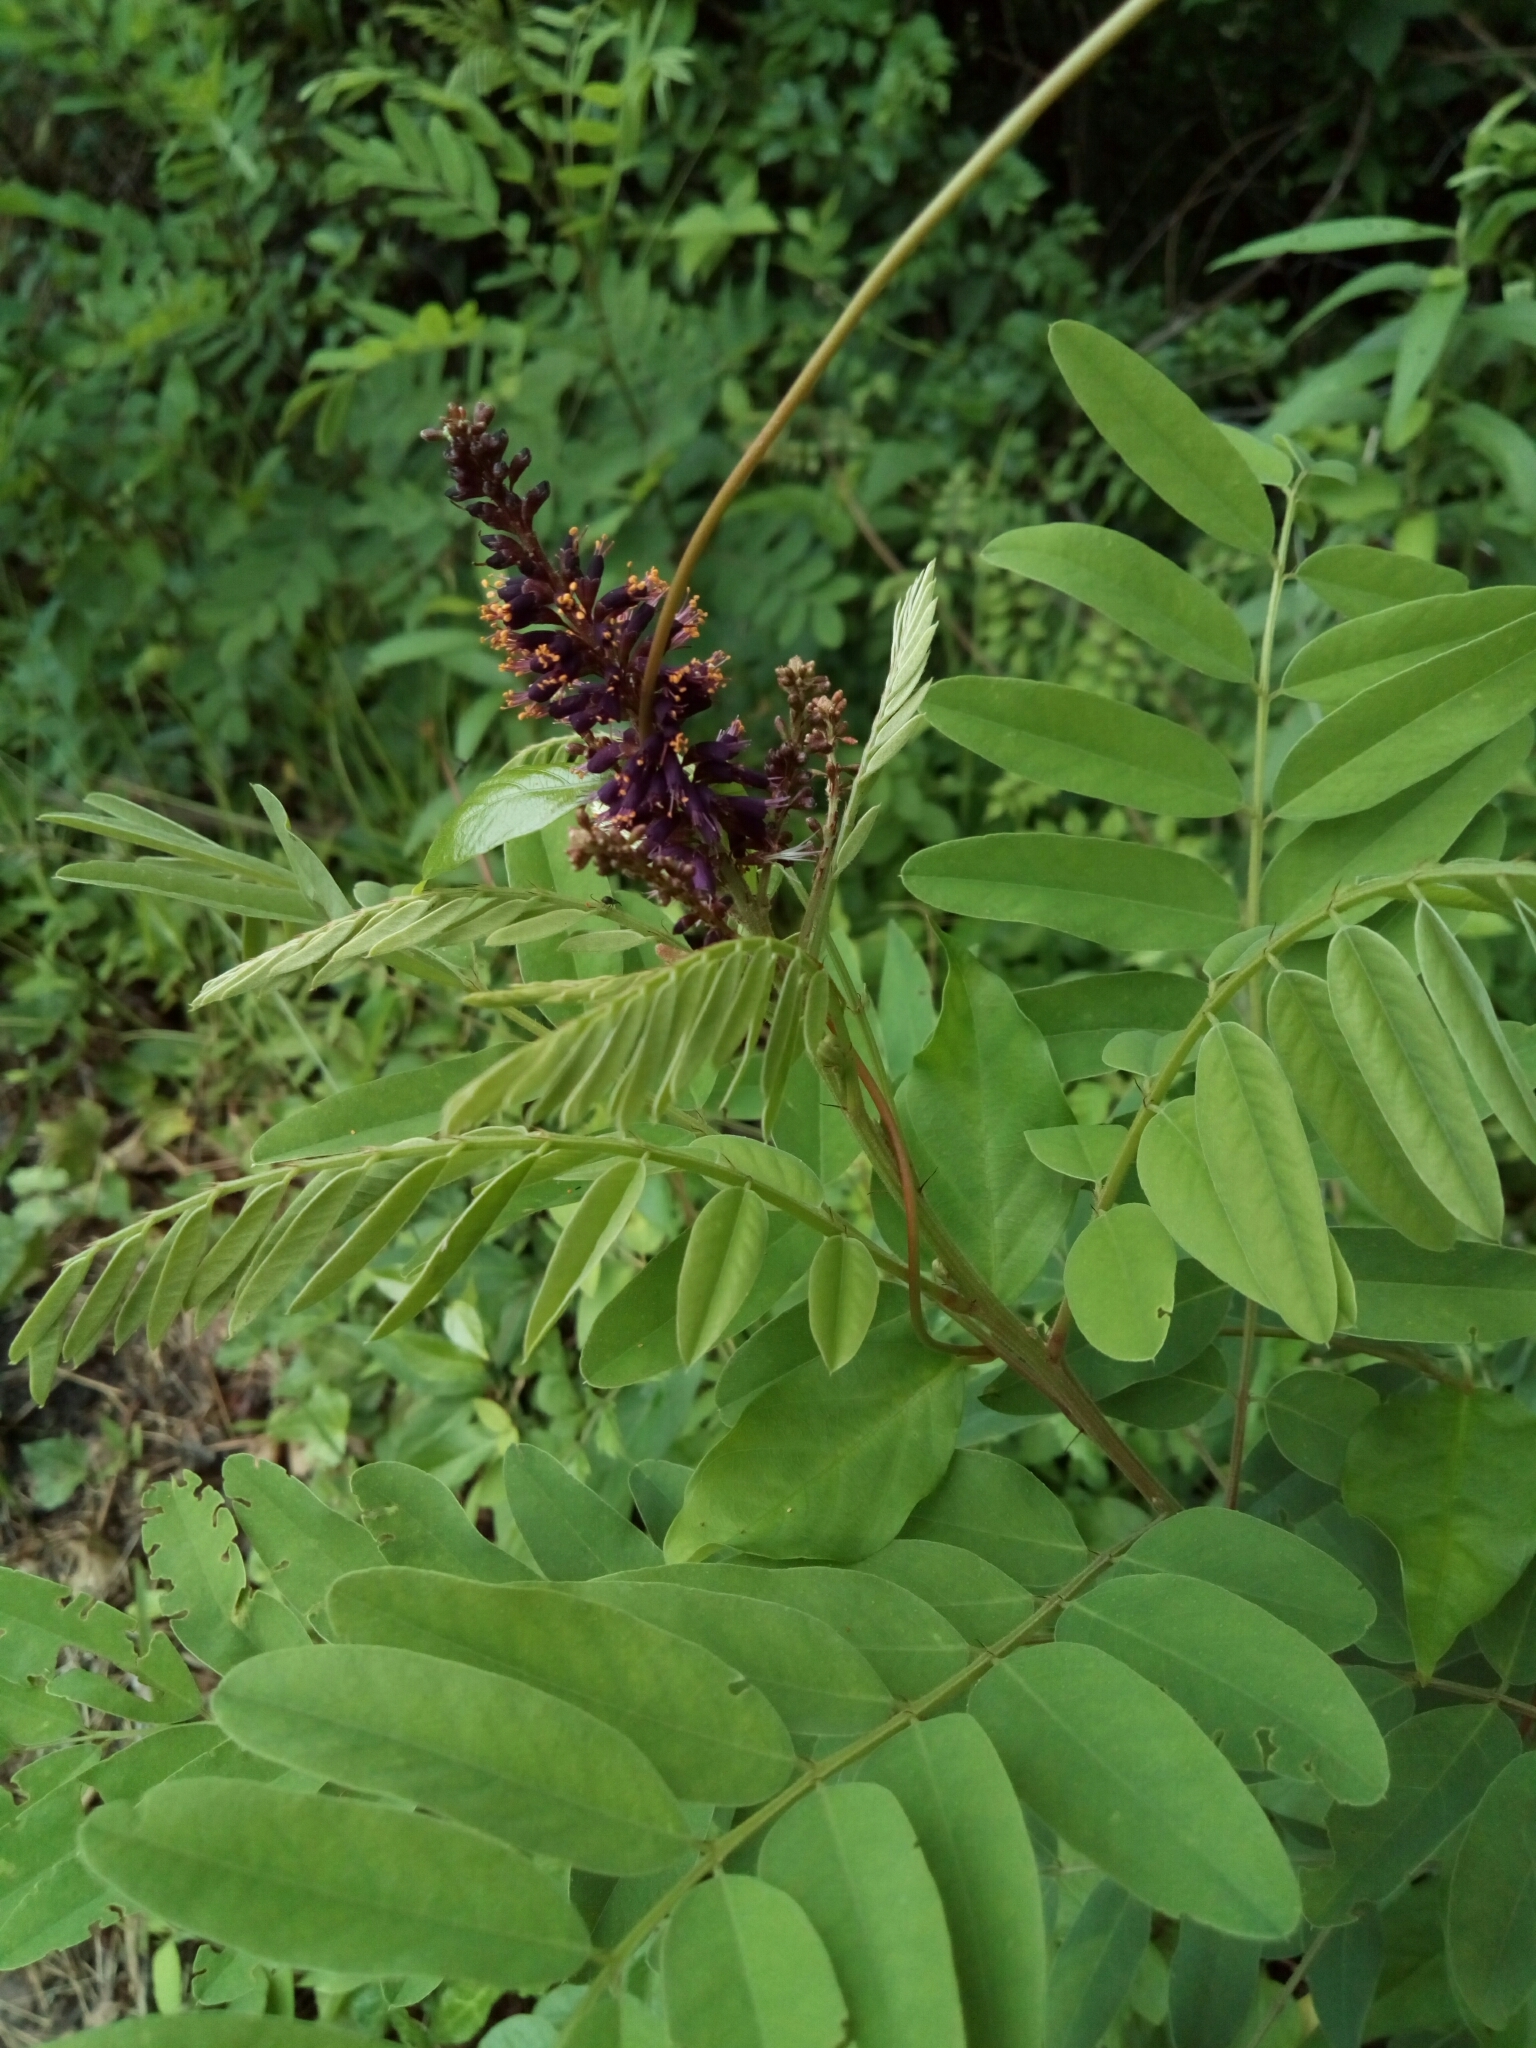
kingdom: Plantae
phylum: Tracheophyta
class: Magnoliopsida
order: Fabales
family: Fabaceae
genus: Amorpha
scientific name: Amorpha fruticosa
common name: False indigo
